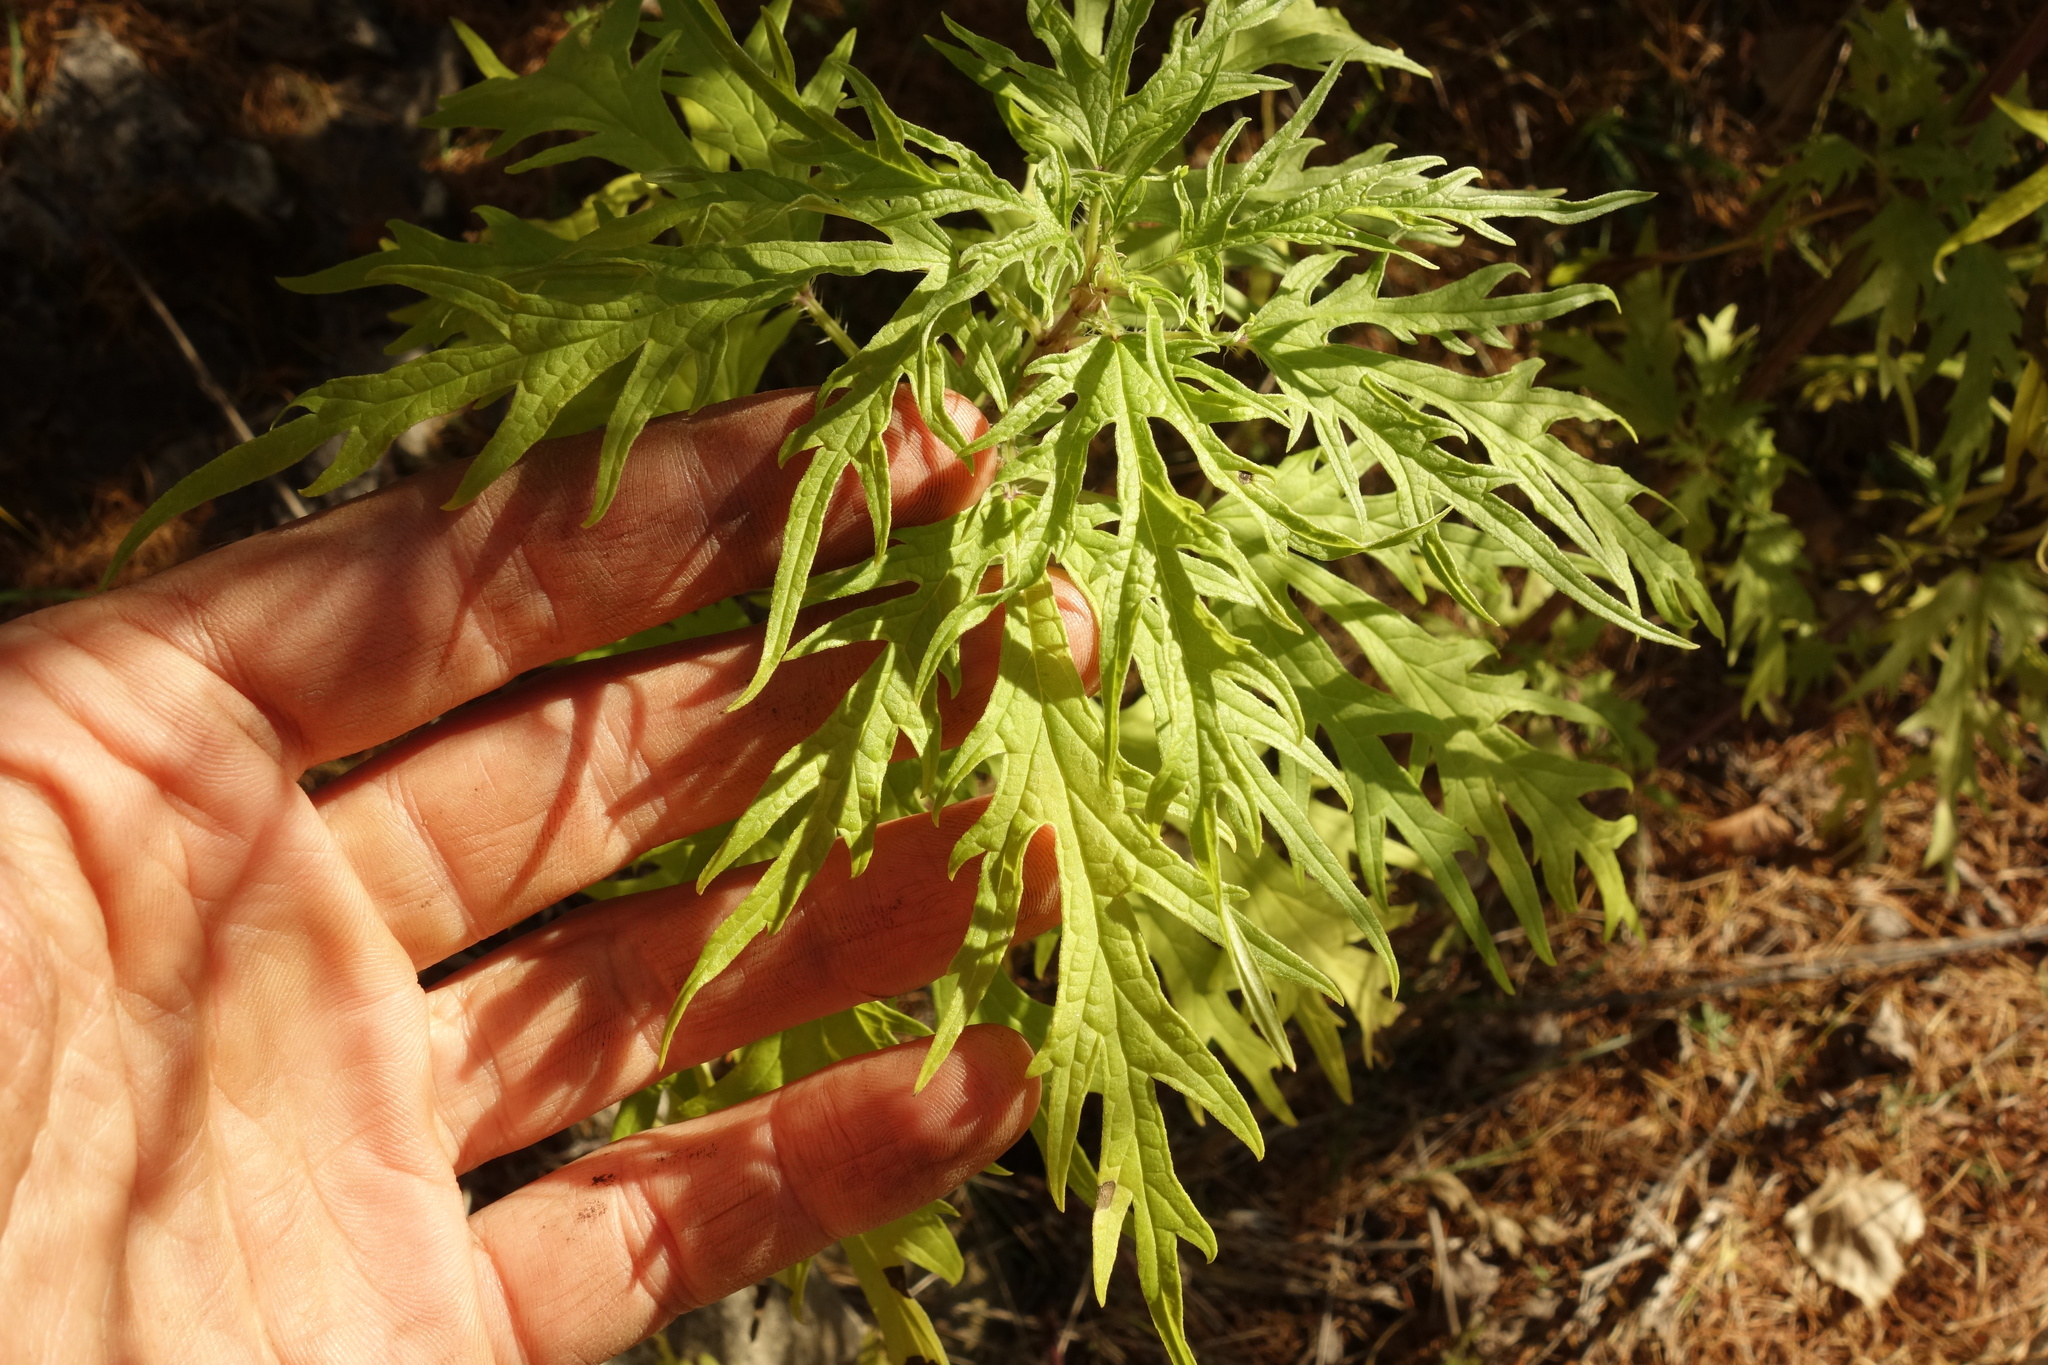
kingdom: Plantae
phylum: Tracheophyta
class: Magnoliopsida
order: Rosales
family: Urticaceae
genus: Urtica
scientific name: Urtica cannabina
